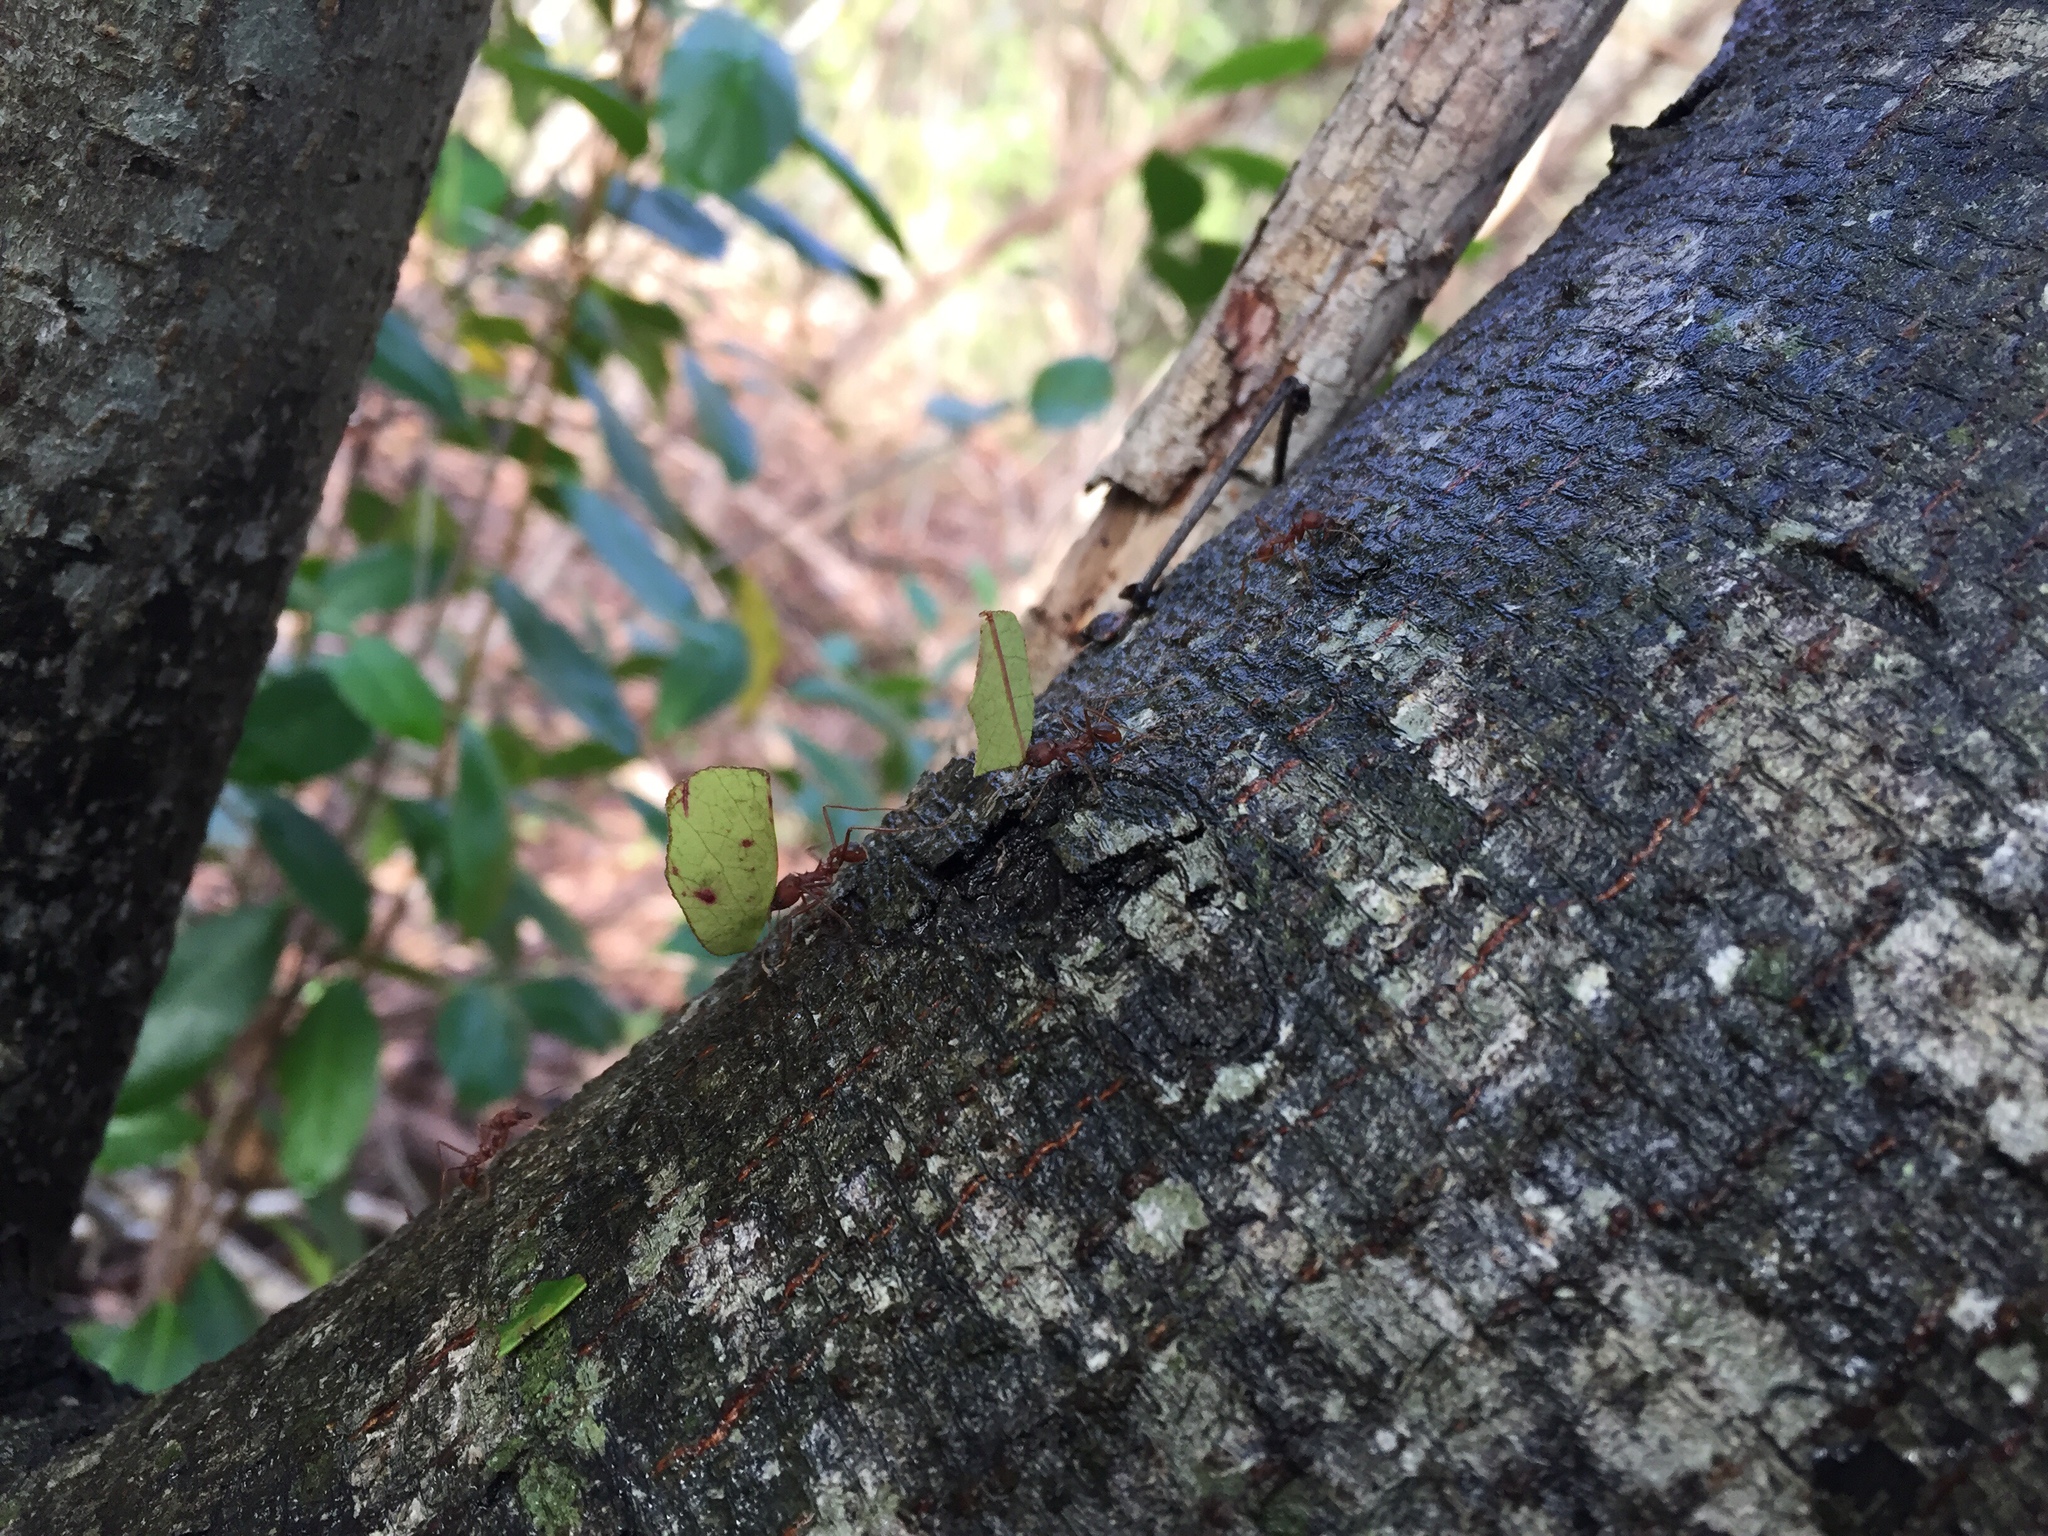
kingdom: Animalia
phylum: Arthropoda
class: Insecta
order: Hymenoptera
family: Formicidae
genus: Atta
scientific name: Atta texana
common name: Texas leafcutting ant
